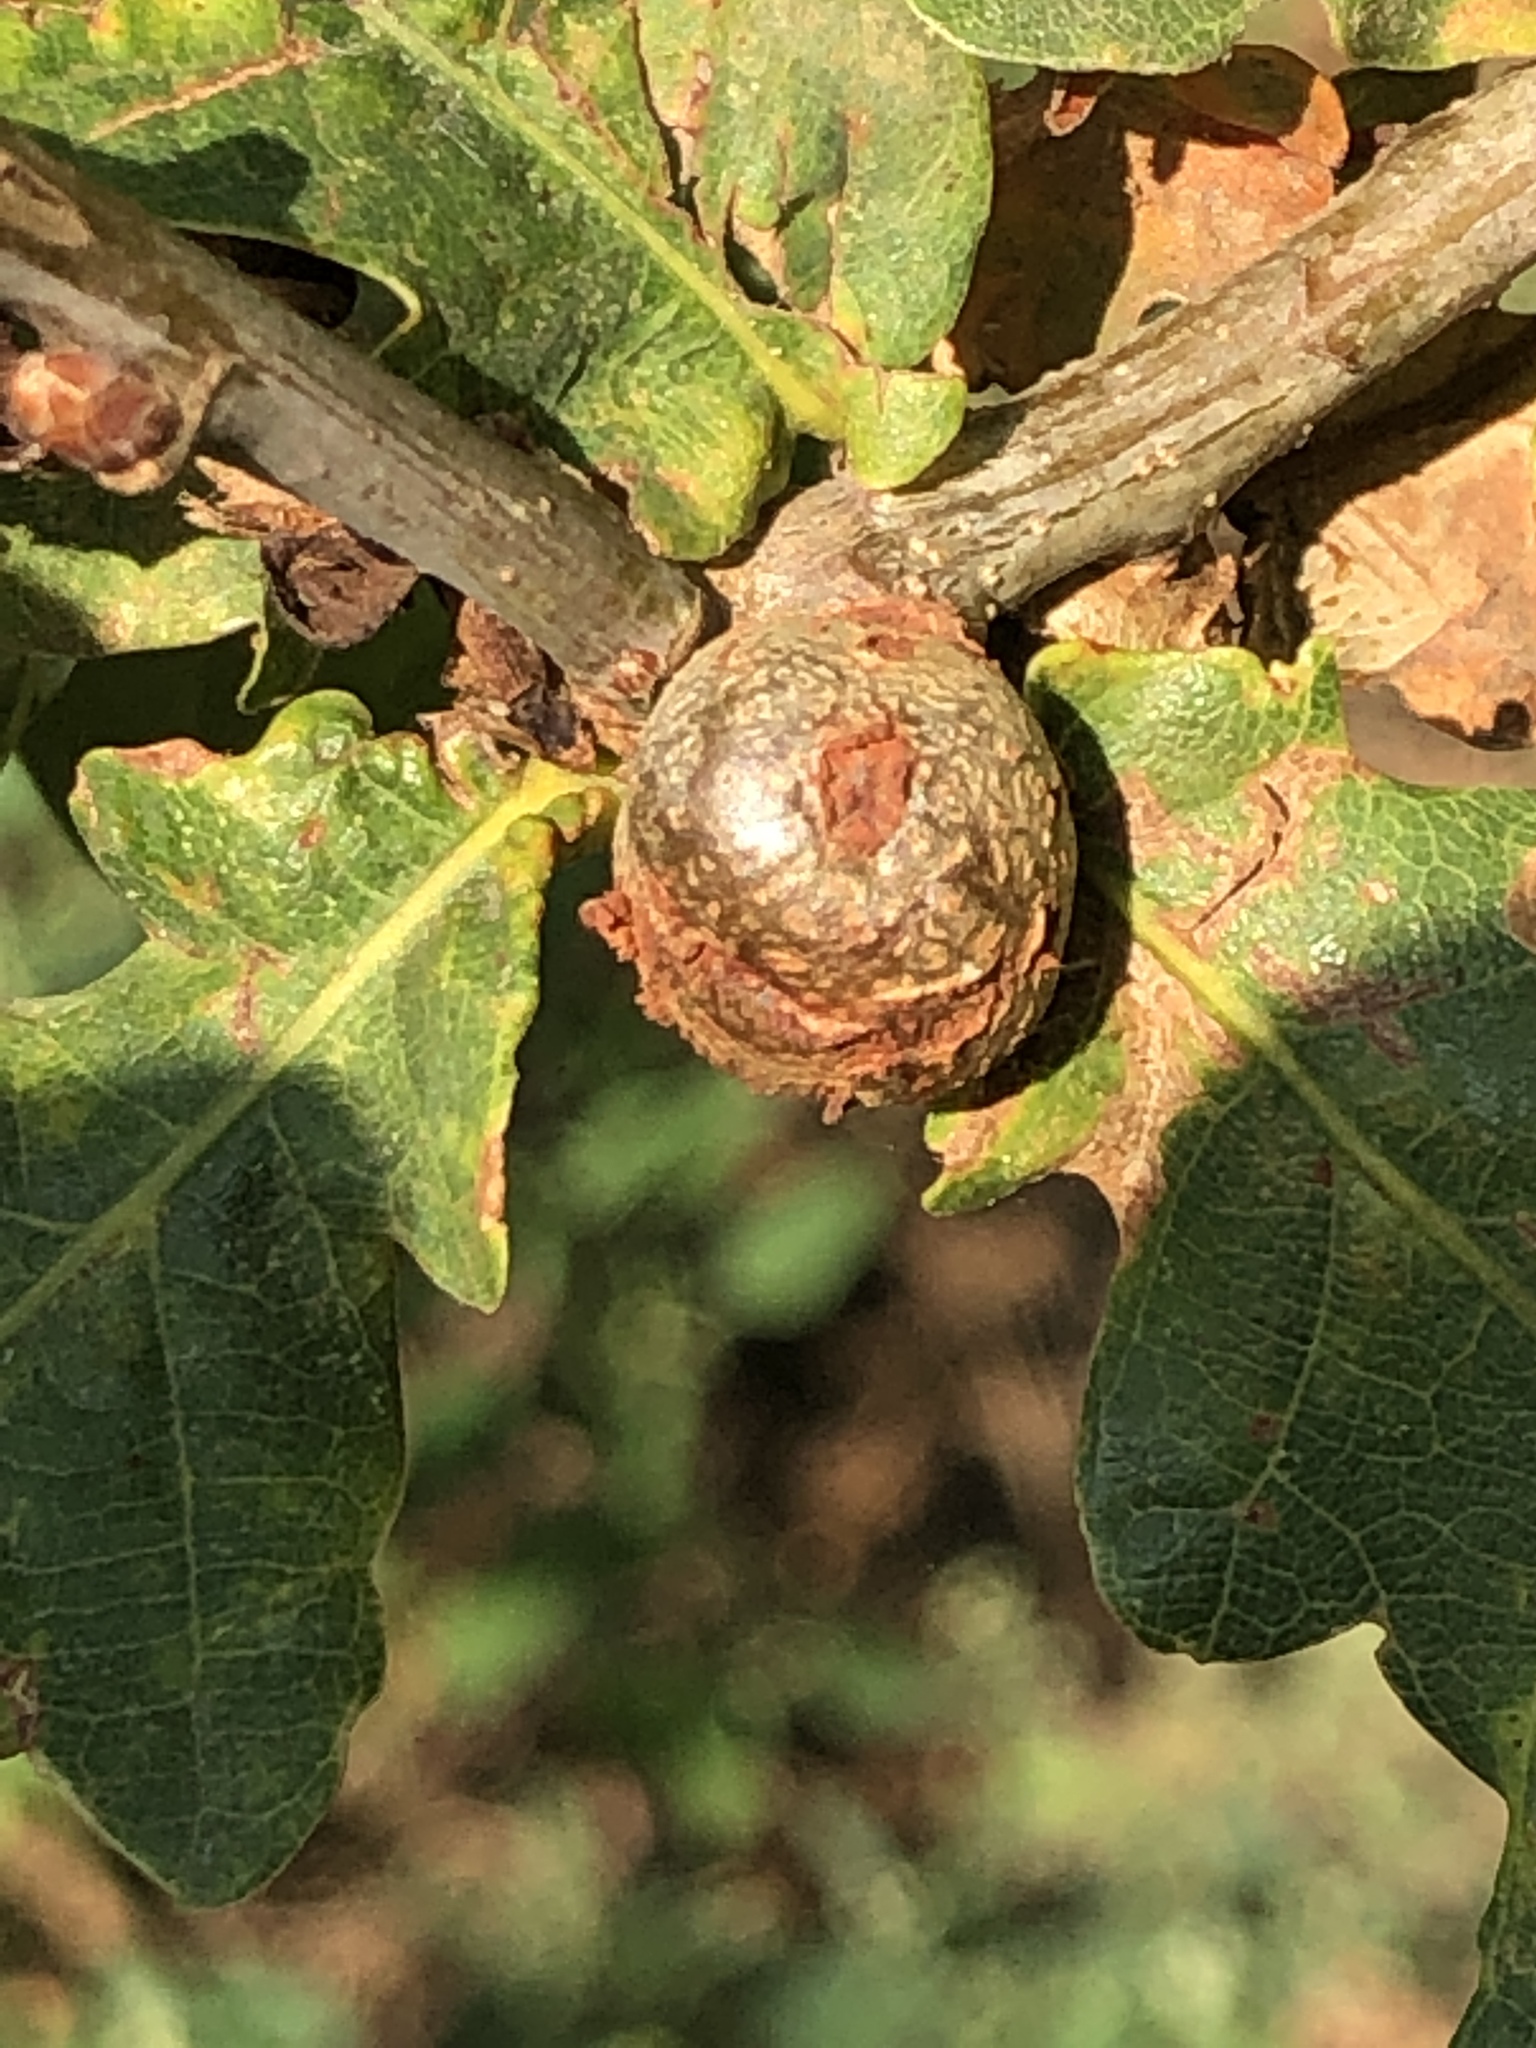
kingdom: Animalia
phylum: Arthropoda
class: Insecta
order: Hymenoptera
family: Cynipidae
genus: Andricus
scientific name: Andricus lignicolus
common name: Cola-nut gall
